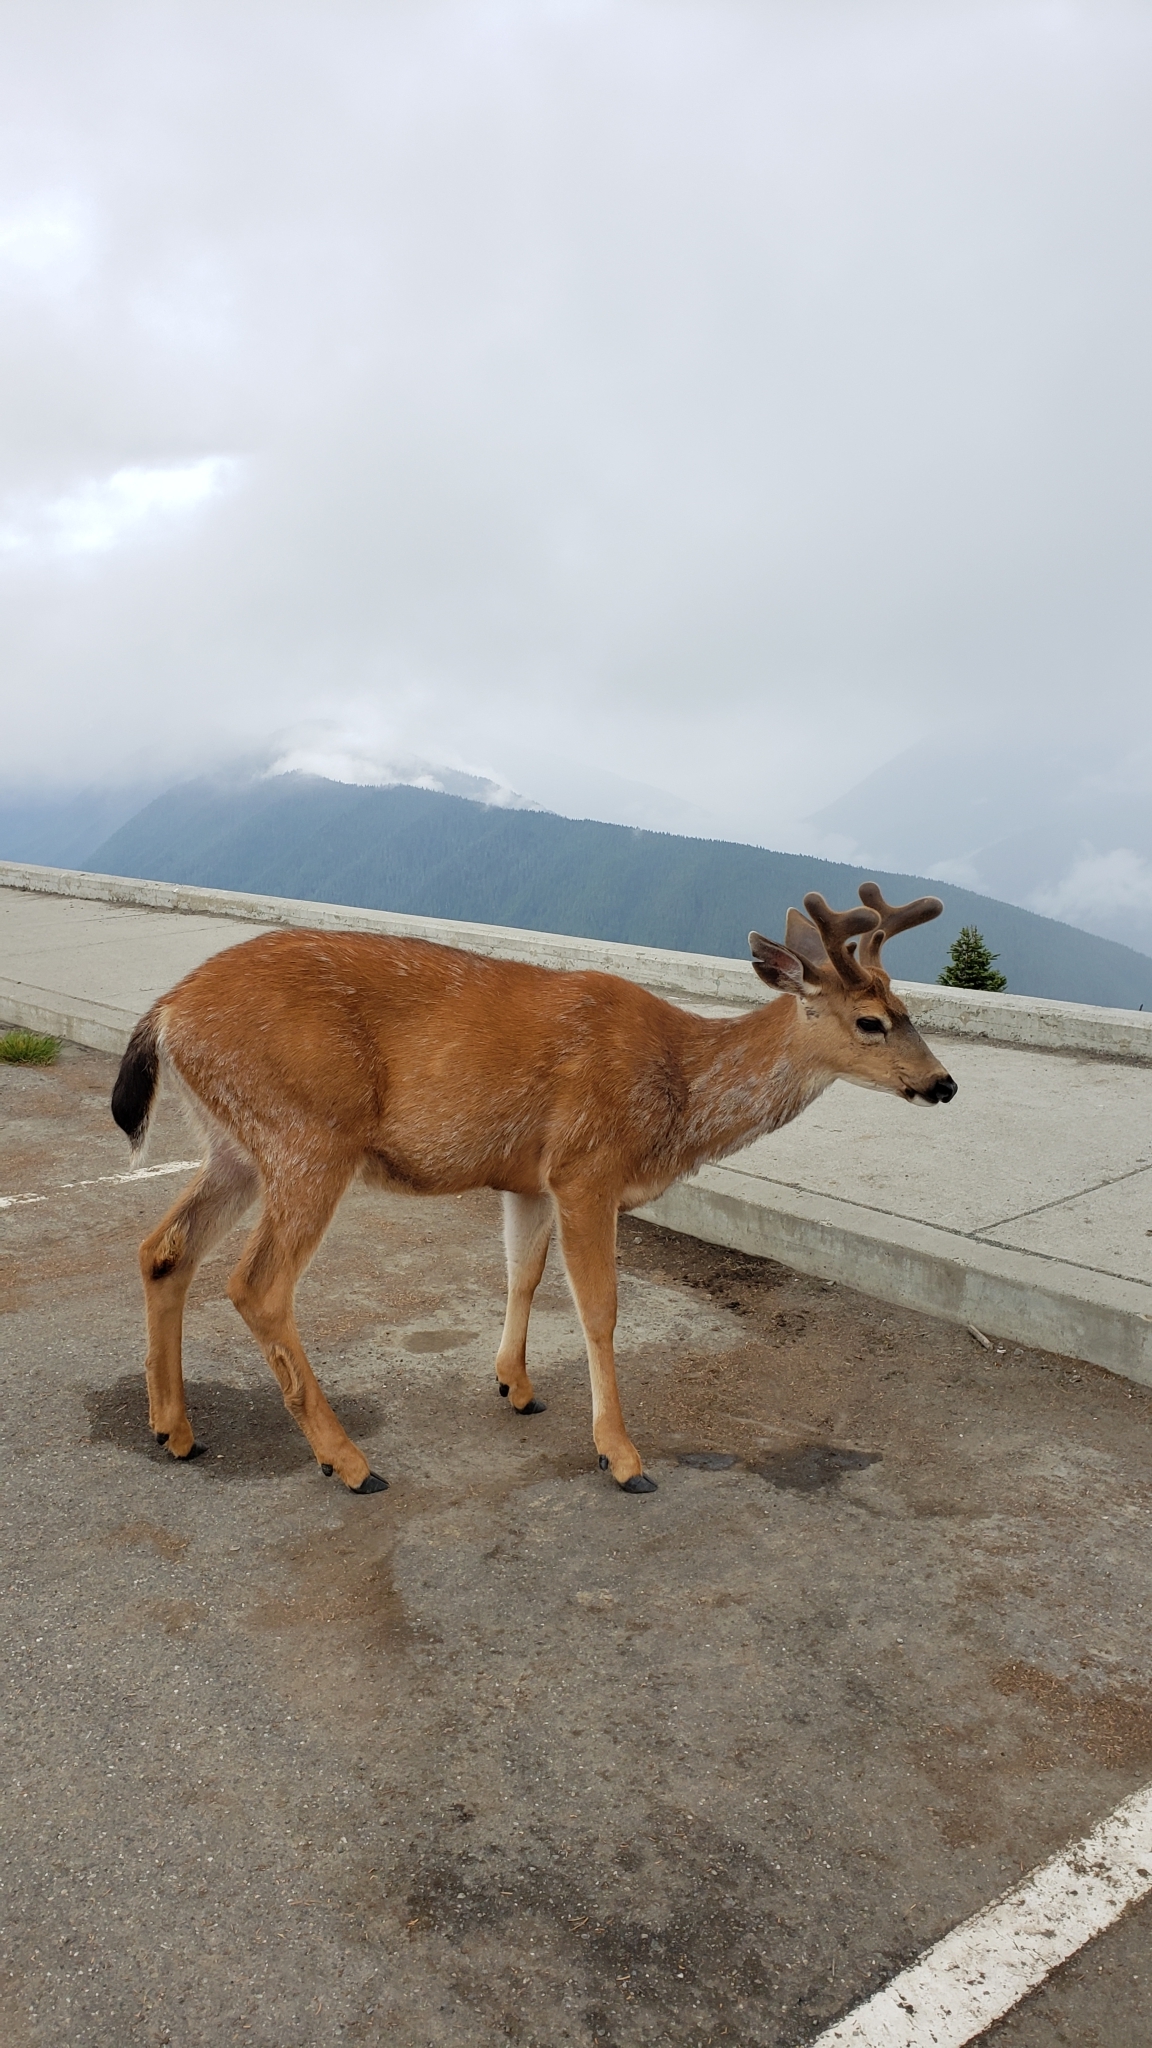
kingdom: Animalia
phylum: Chordata
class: Mammalia
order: Artiodactyla
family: Cervidae
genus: Odocoileus
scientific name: Odocoileus hemionus
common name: Mule deer
